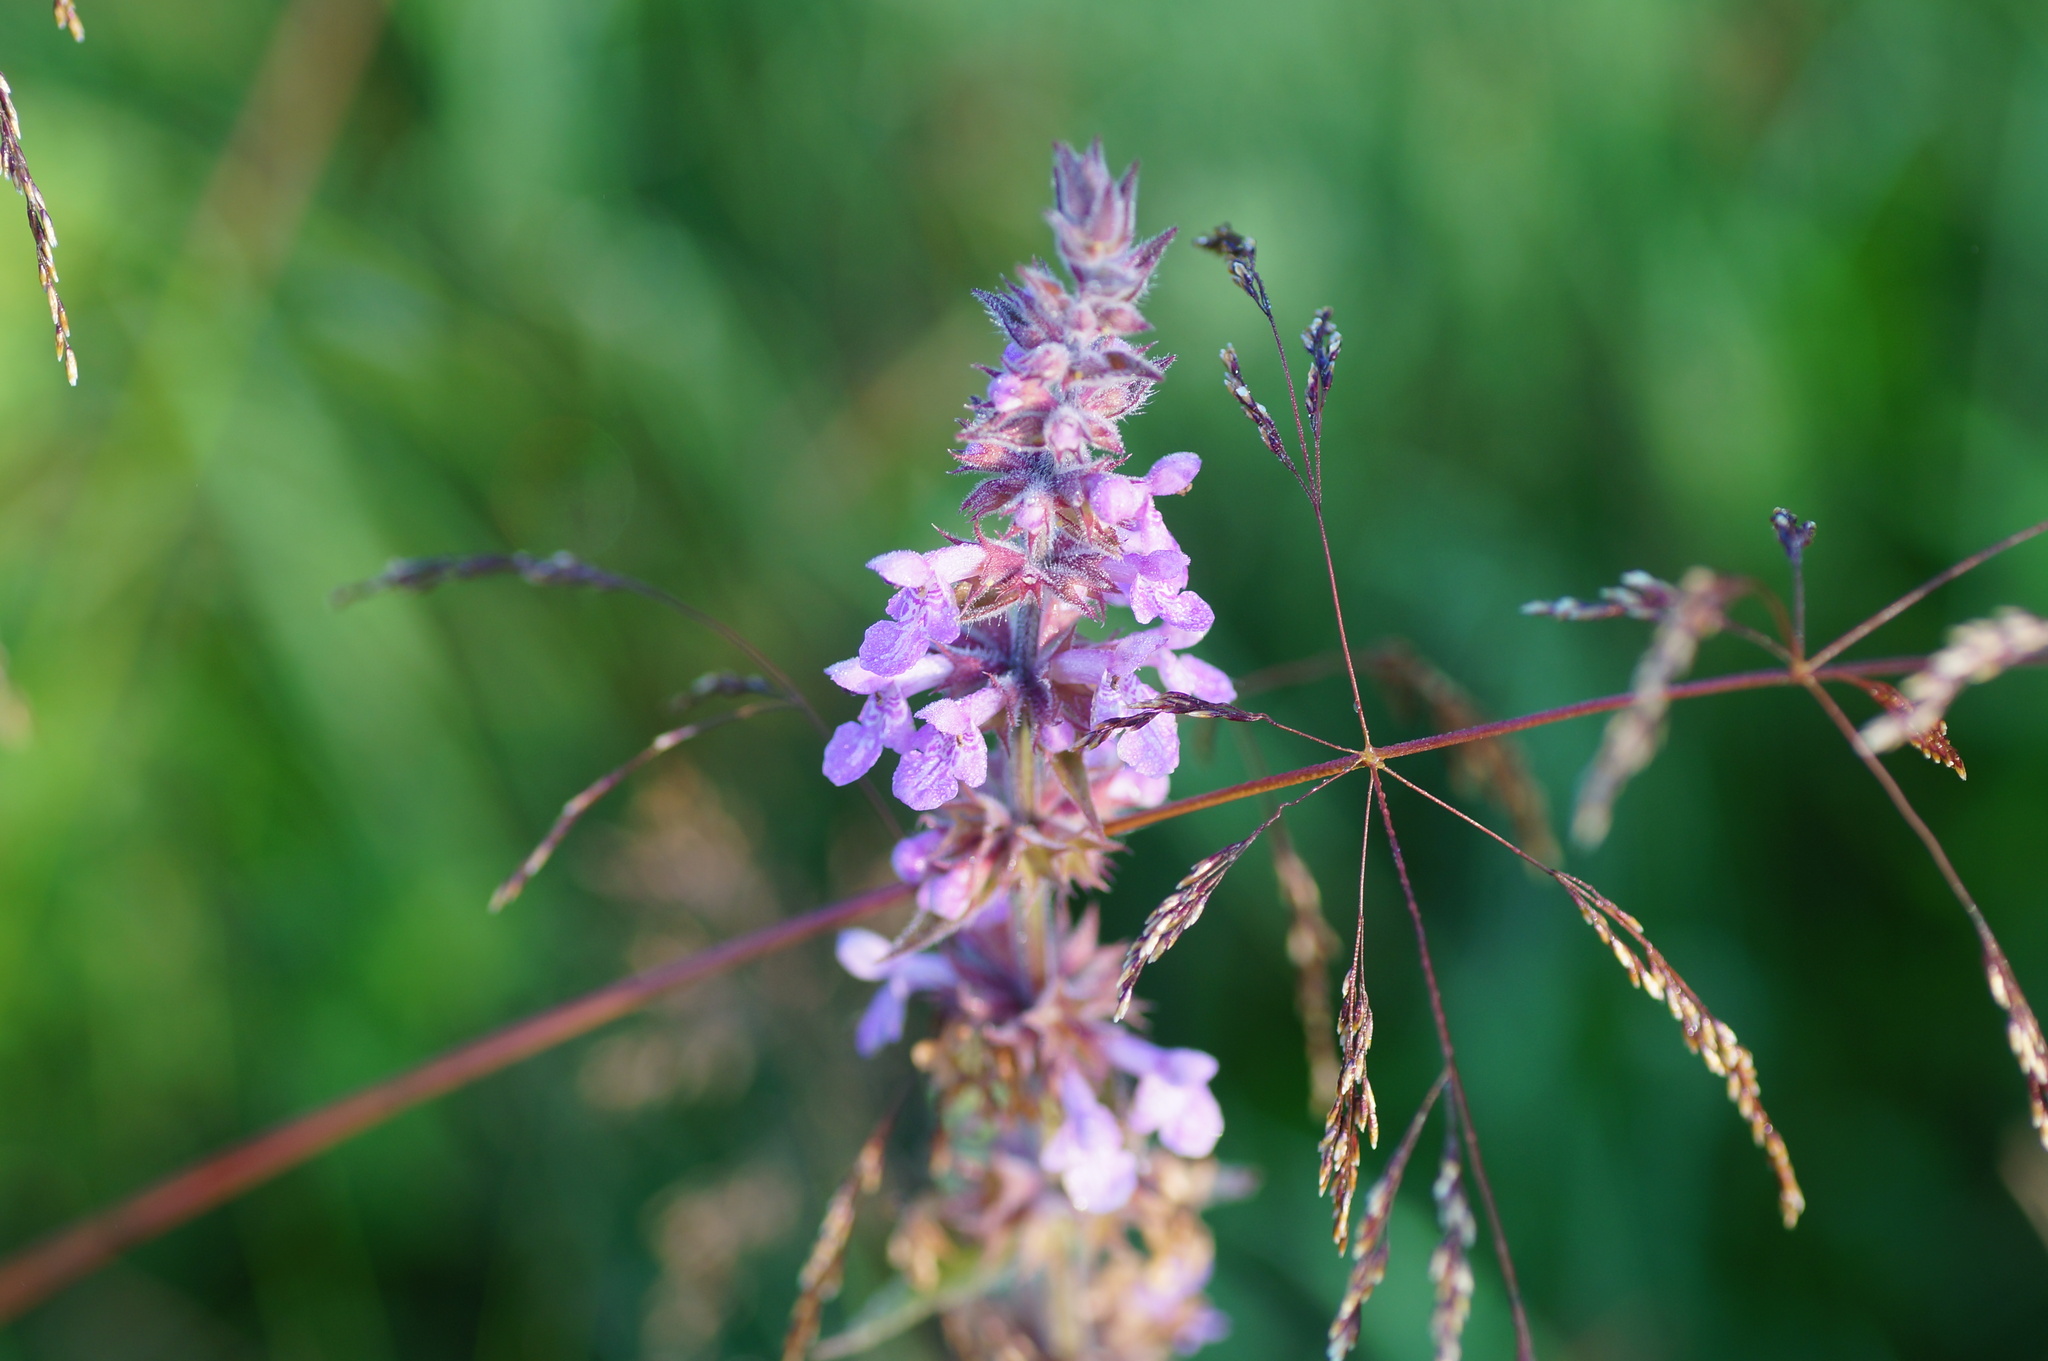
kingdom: Plantae
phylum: Tracheophyta
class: Magnoliopsida
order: Lamiales
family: Lamiaceae
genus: Stachys
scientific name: Stachys palustris
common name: Marsh woundwort
